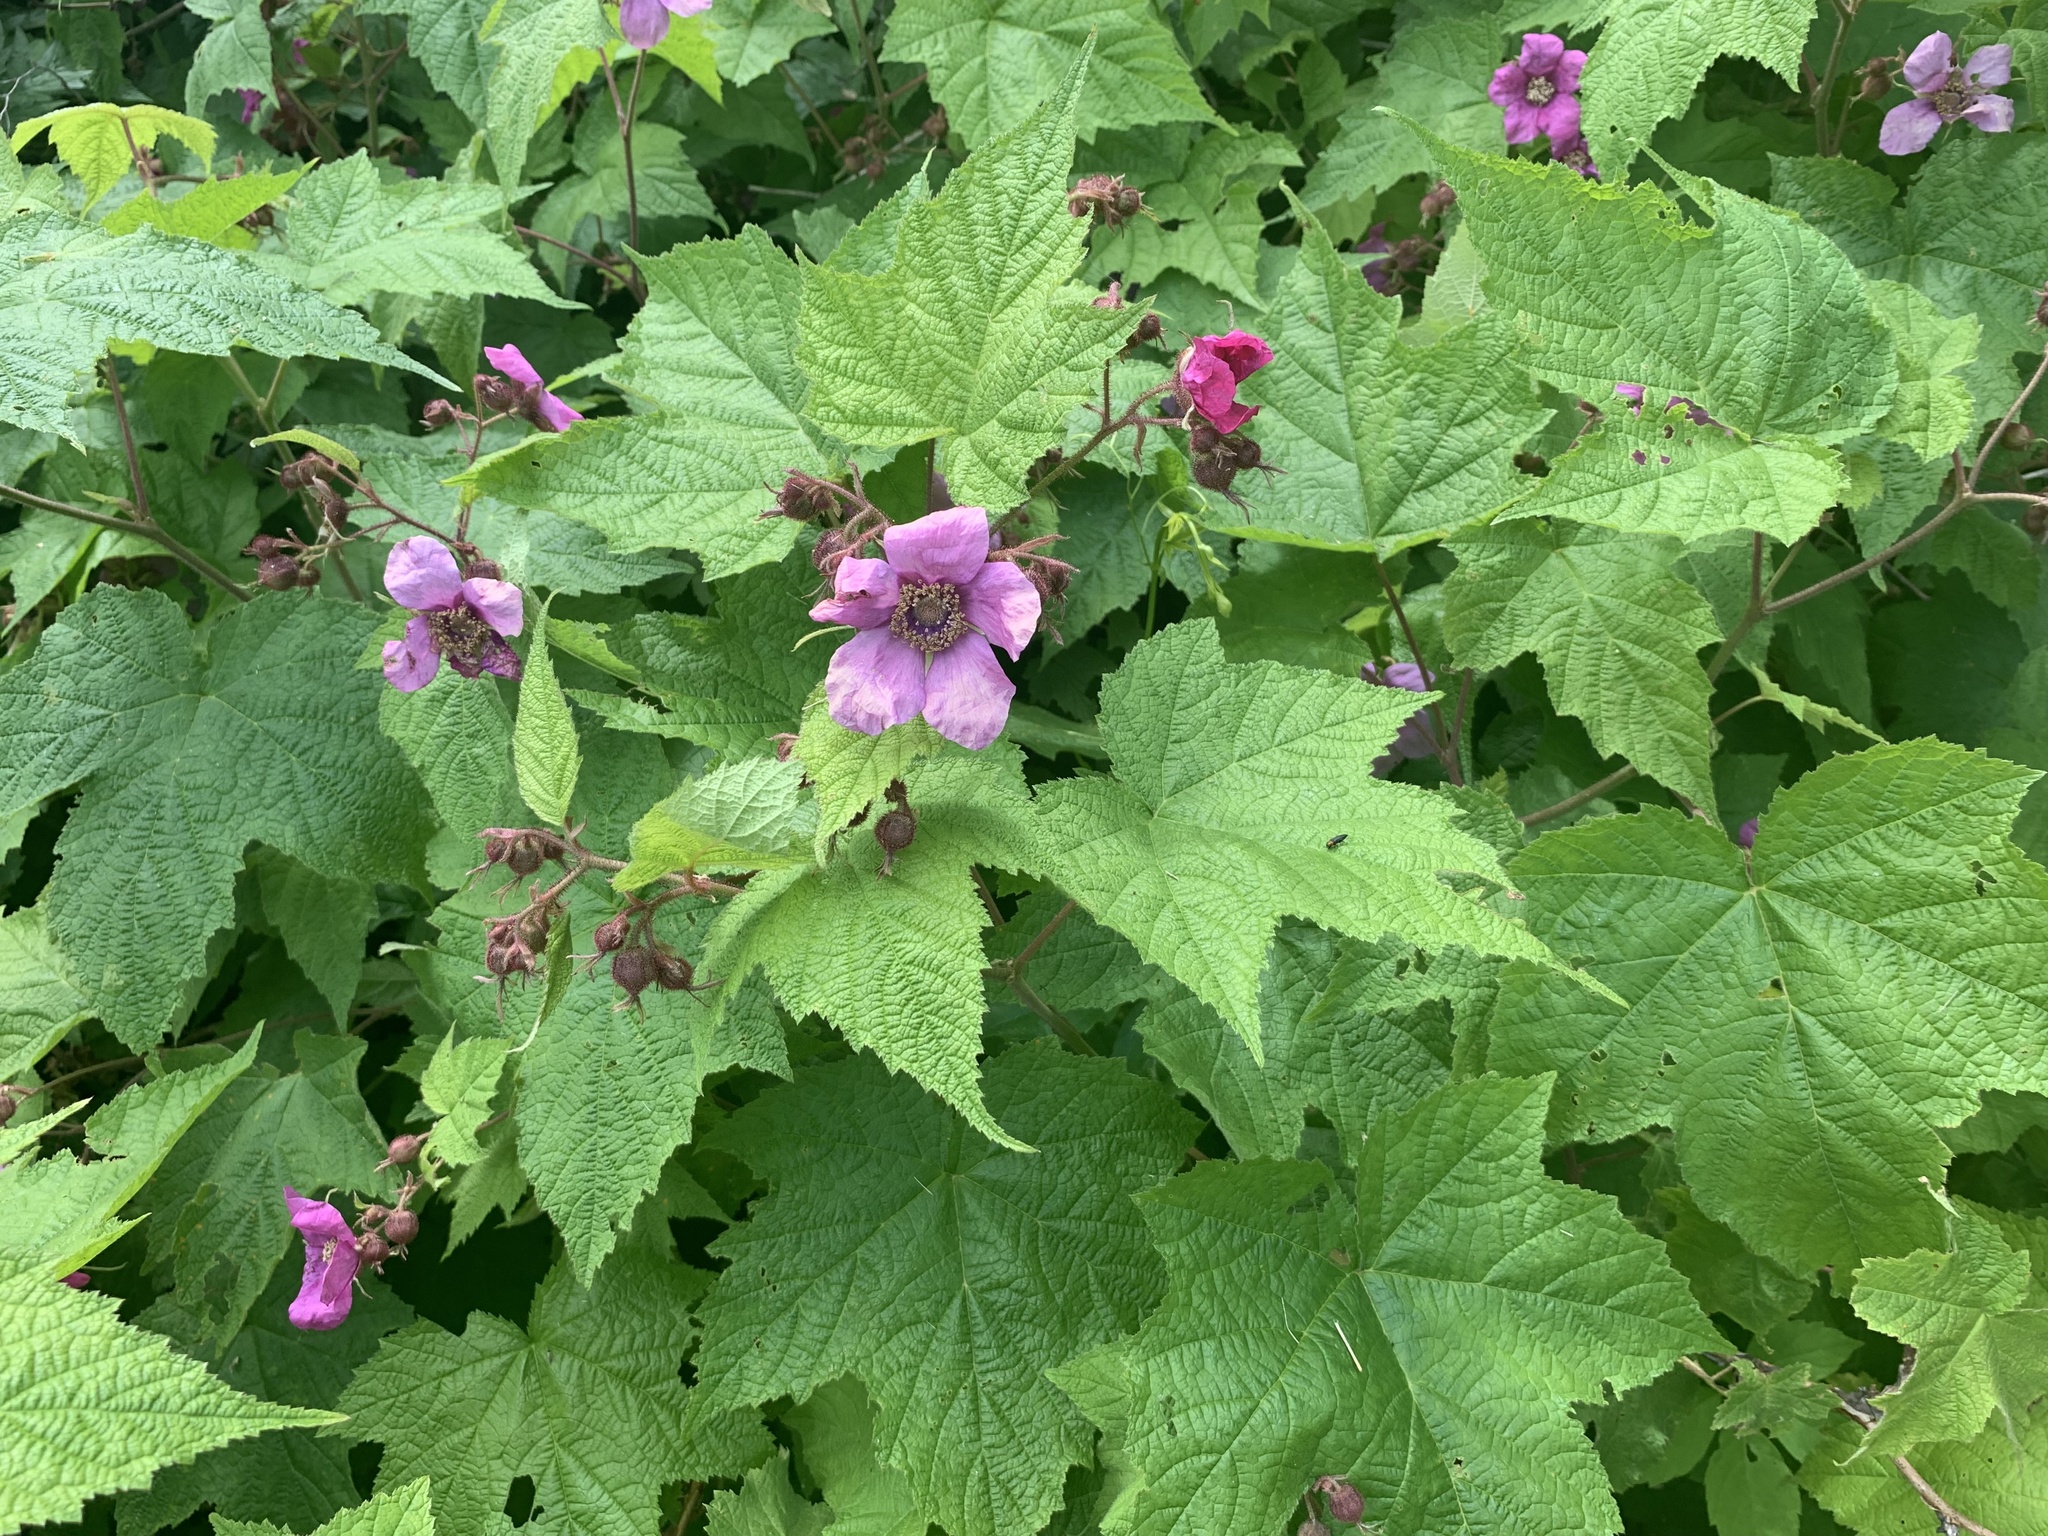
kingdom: Plantae
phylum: Tracheophyta
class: Magnoliopsida
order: Rosales
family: Rosaceae
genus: Rubus
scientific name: Rubus odoratus
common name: Purple-flowered raspberry
